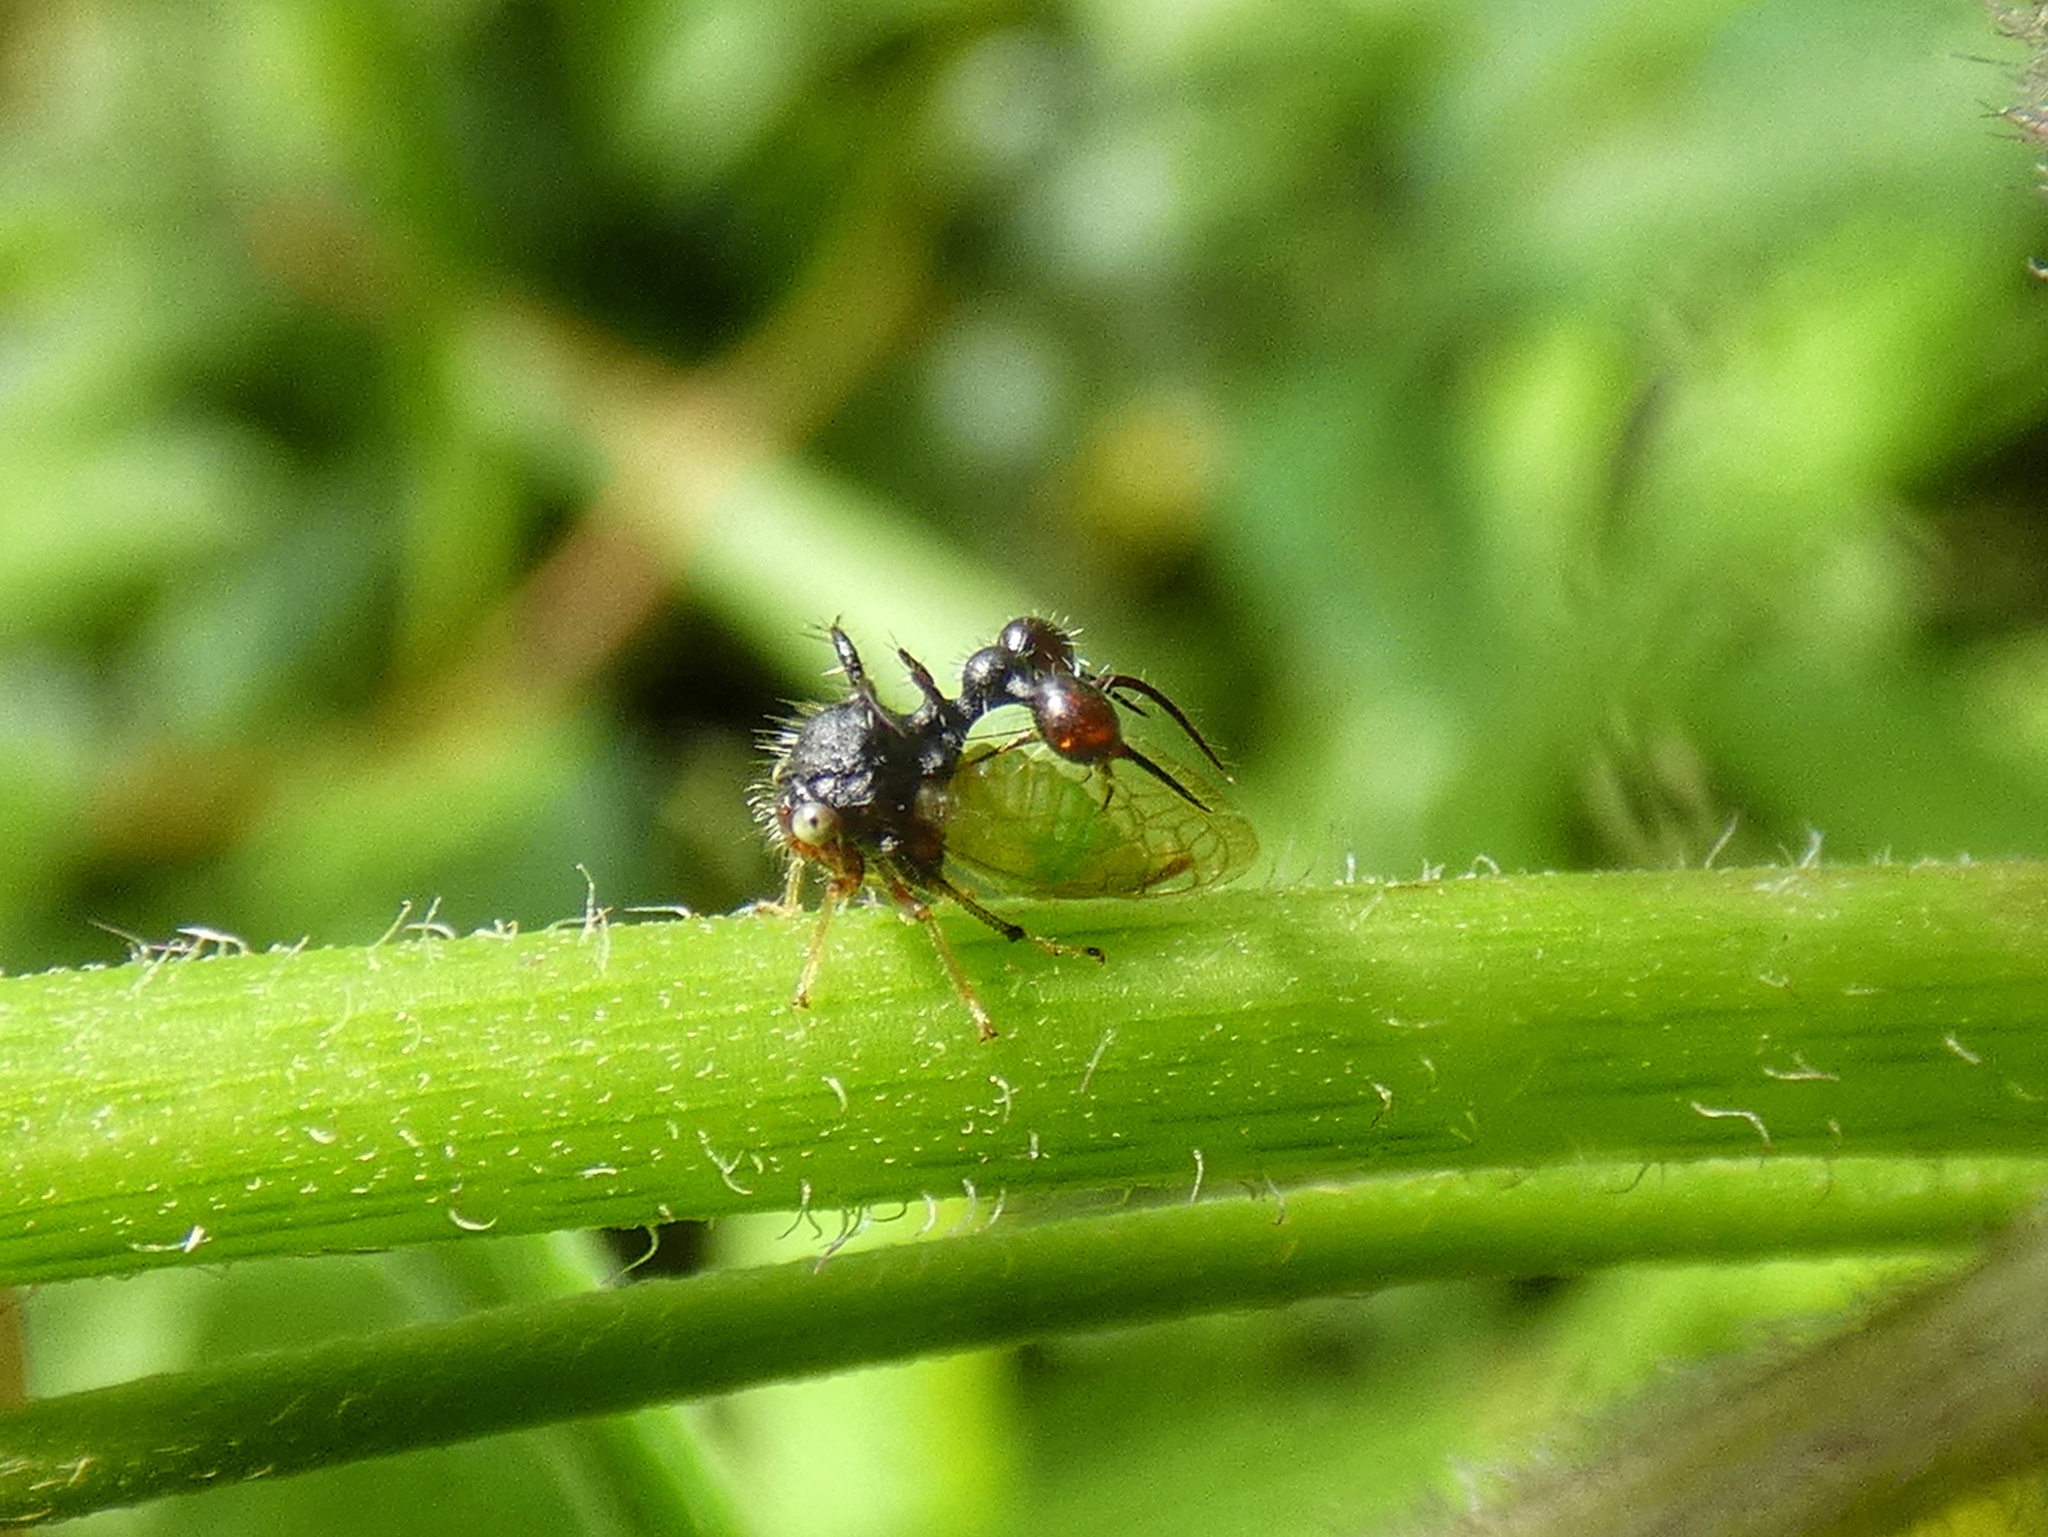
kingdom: Animalia
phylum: Arthropoda
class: Insecta
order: Hemiptera
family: Membracidae
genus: Cyphonia
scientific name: Cyphonia clavata
